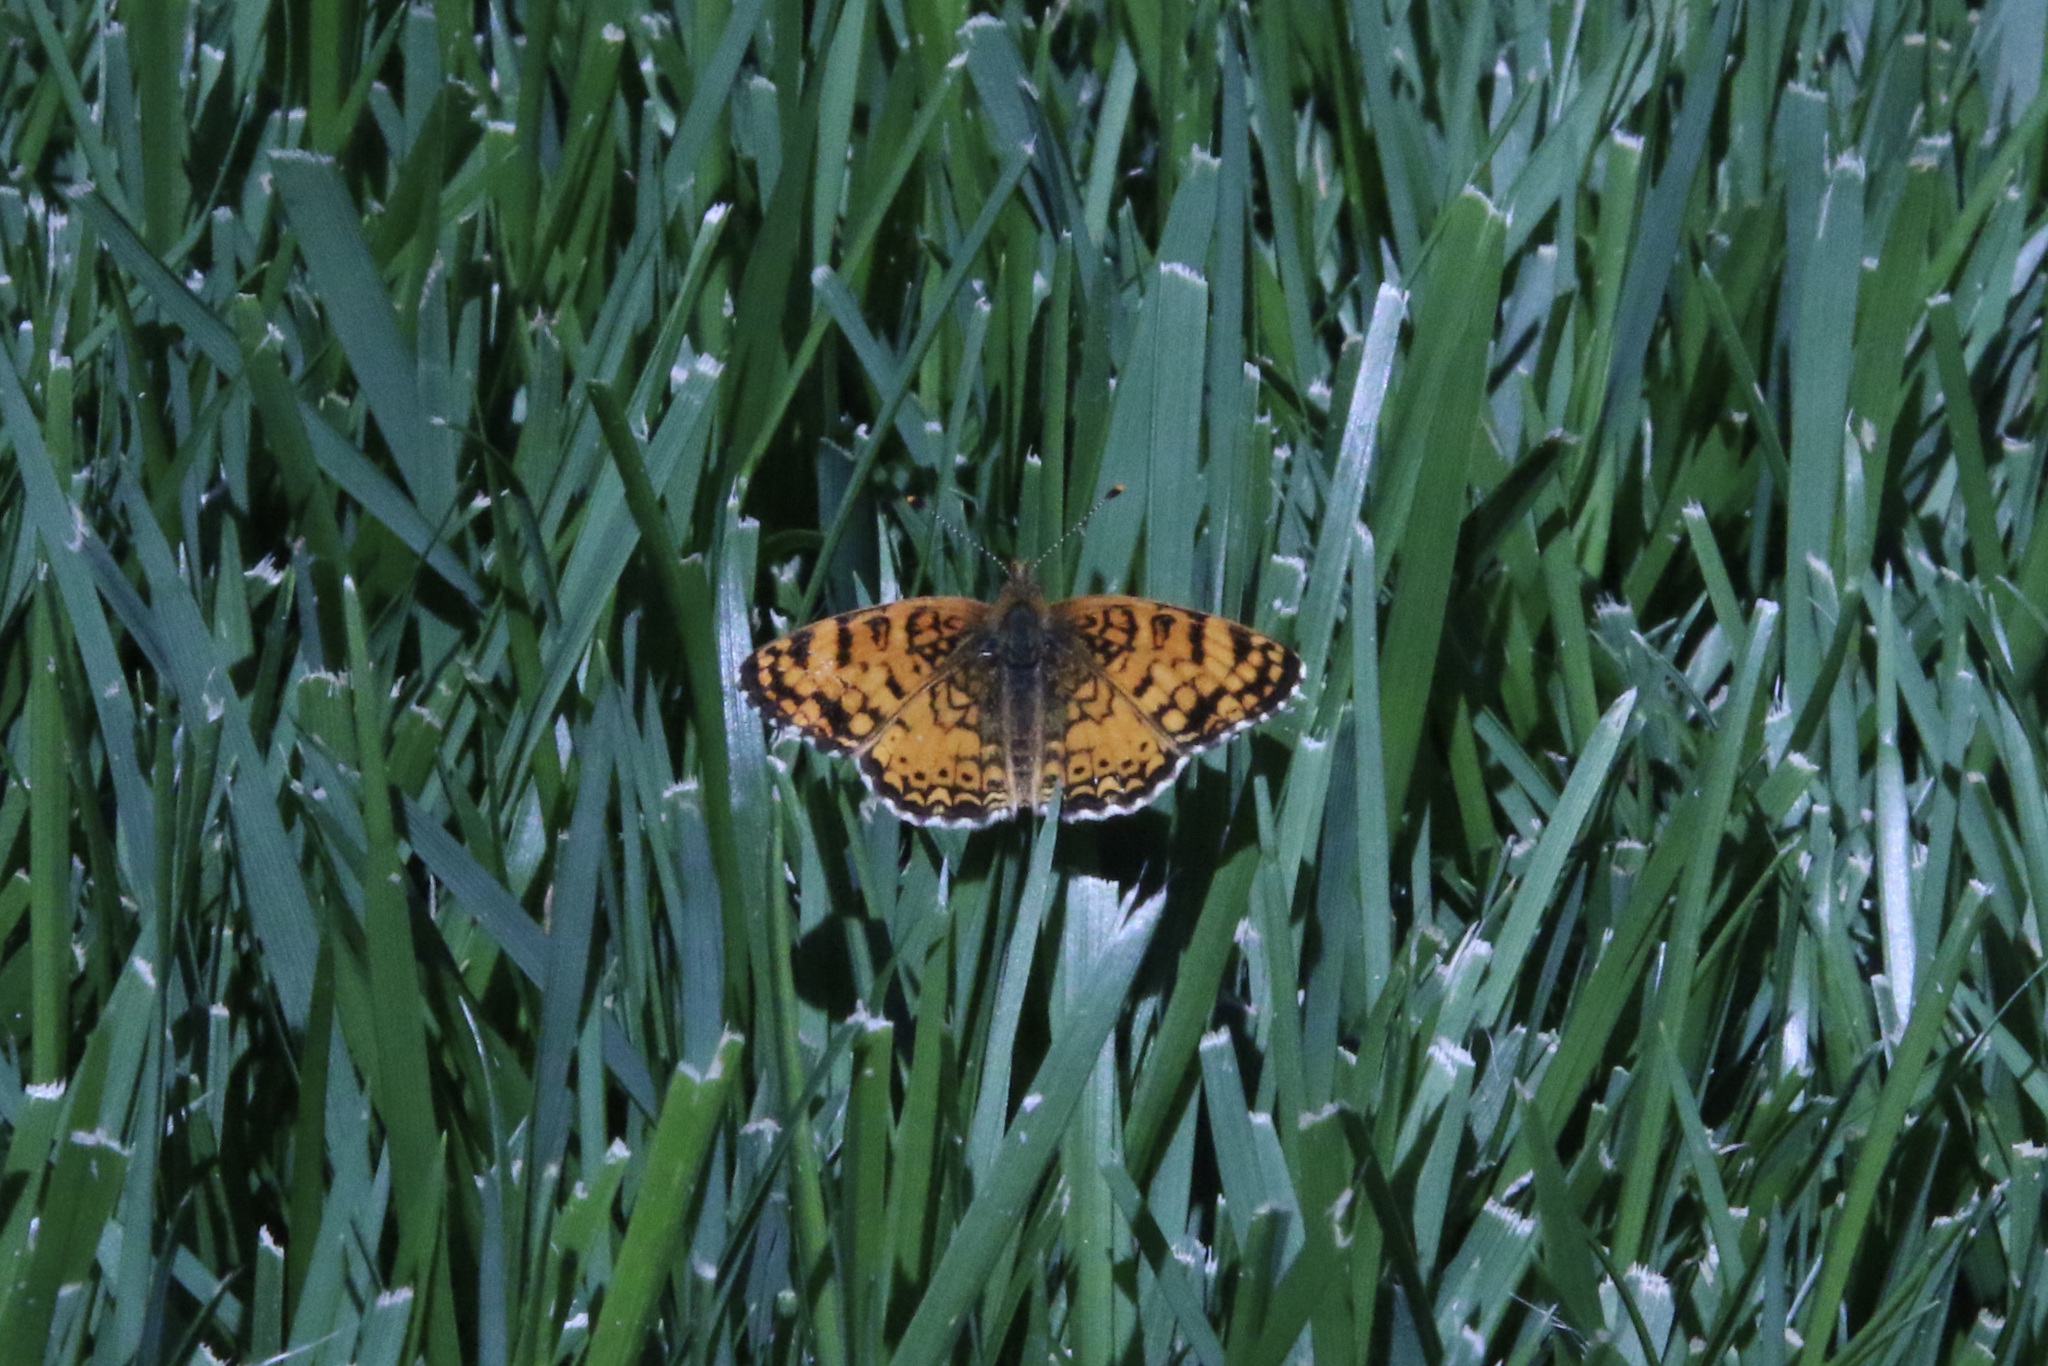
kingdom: Animalia
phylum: Arthropoda
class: Insecta
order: Lepidoptera
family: Nymphalidae
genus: Eresia
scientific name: Eresia aveyrona
